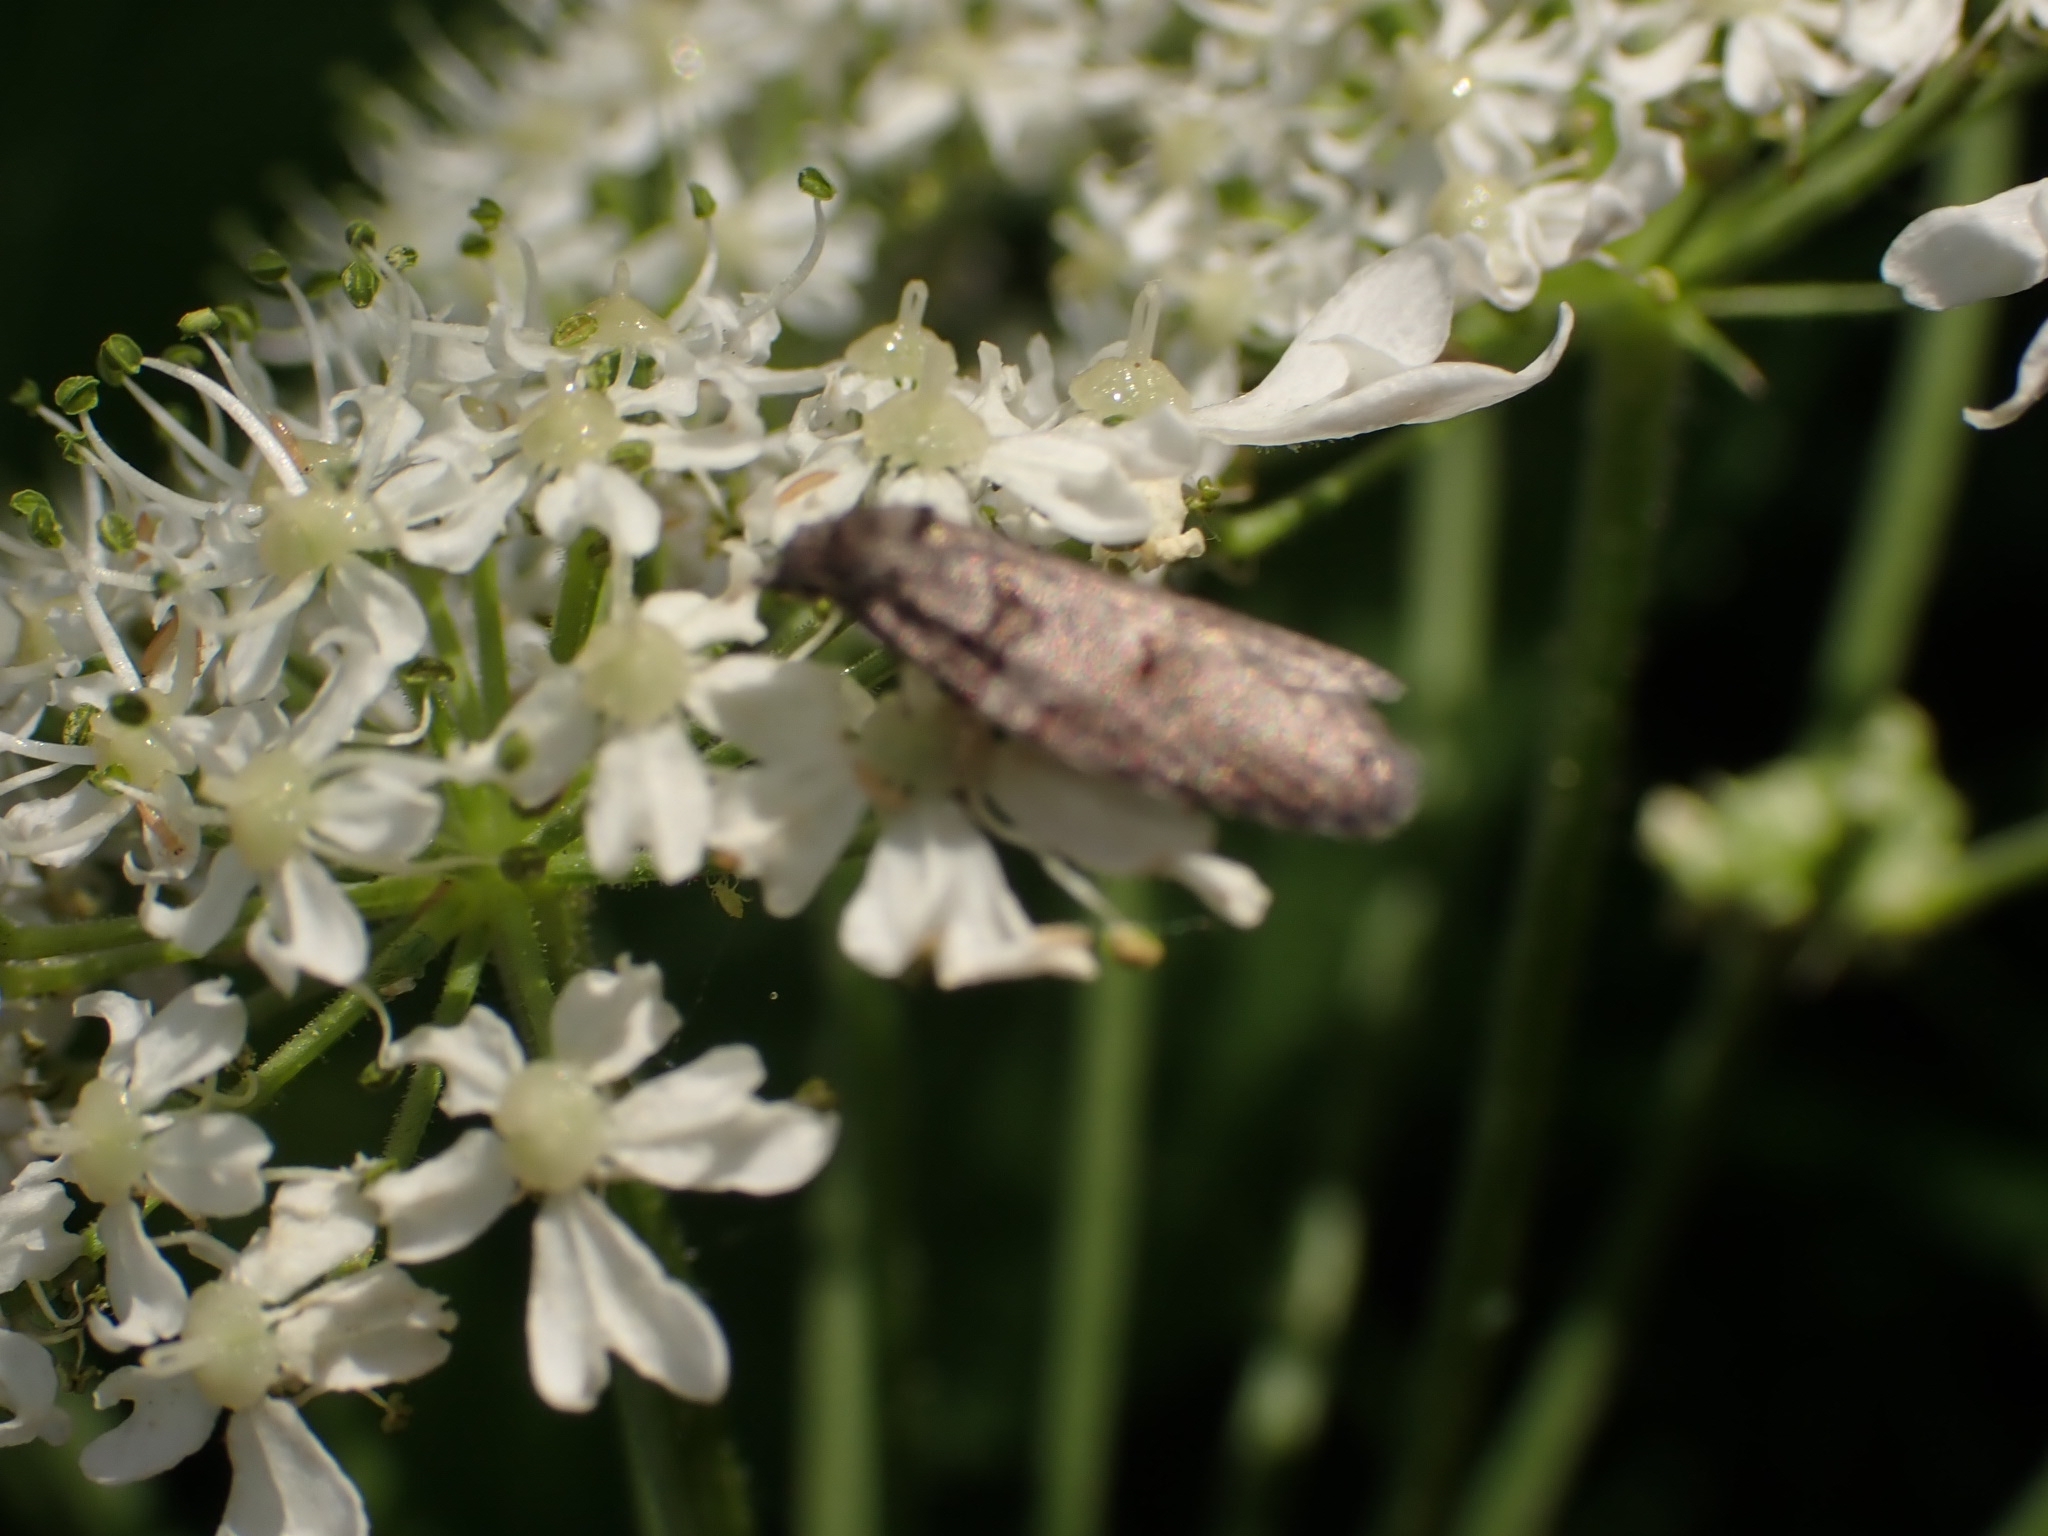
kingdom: Animalia
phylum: Arthropoda
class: Insecta
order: Lepidoptera
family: Tortricidae
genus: Eana
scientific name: Eana incanana
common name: Bluebell shade
